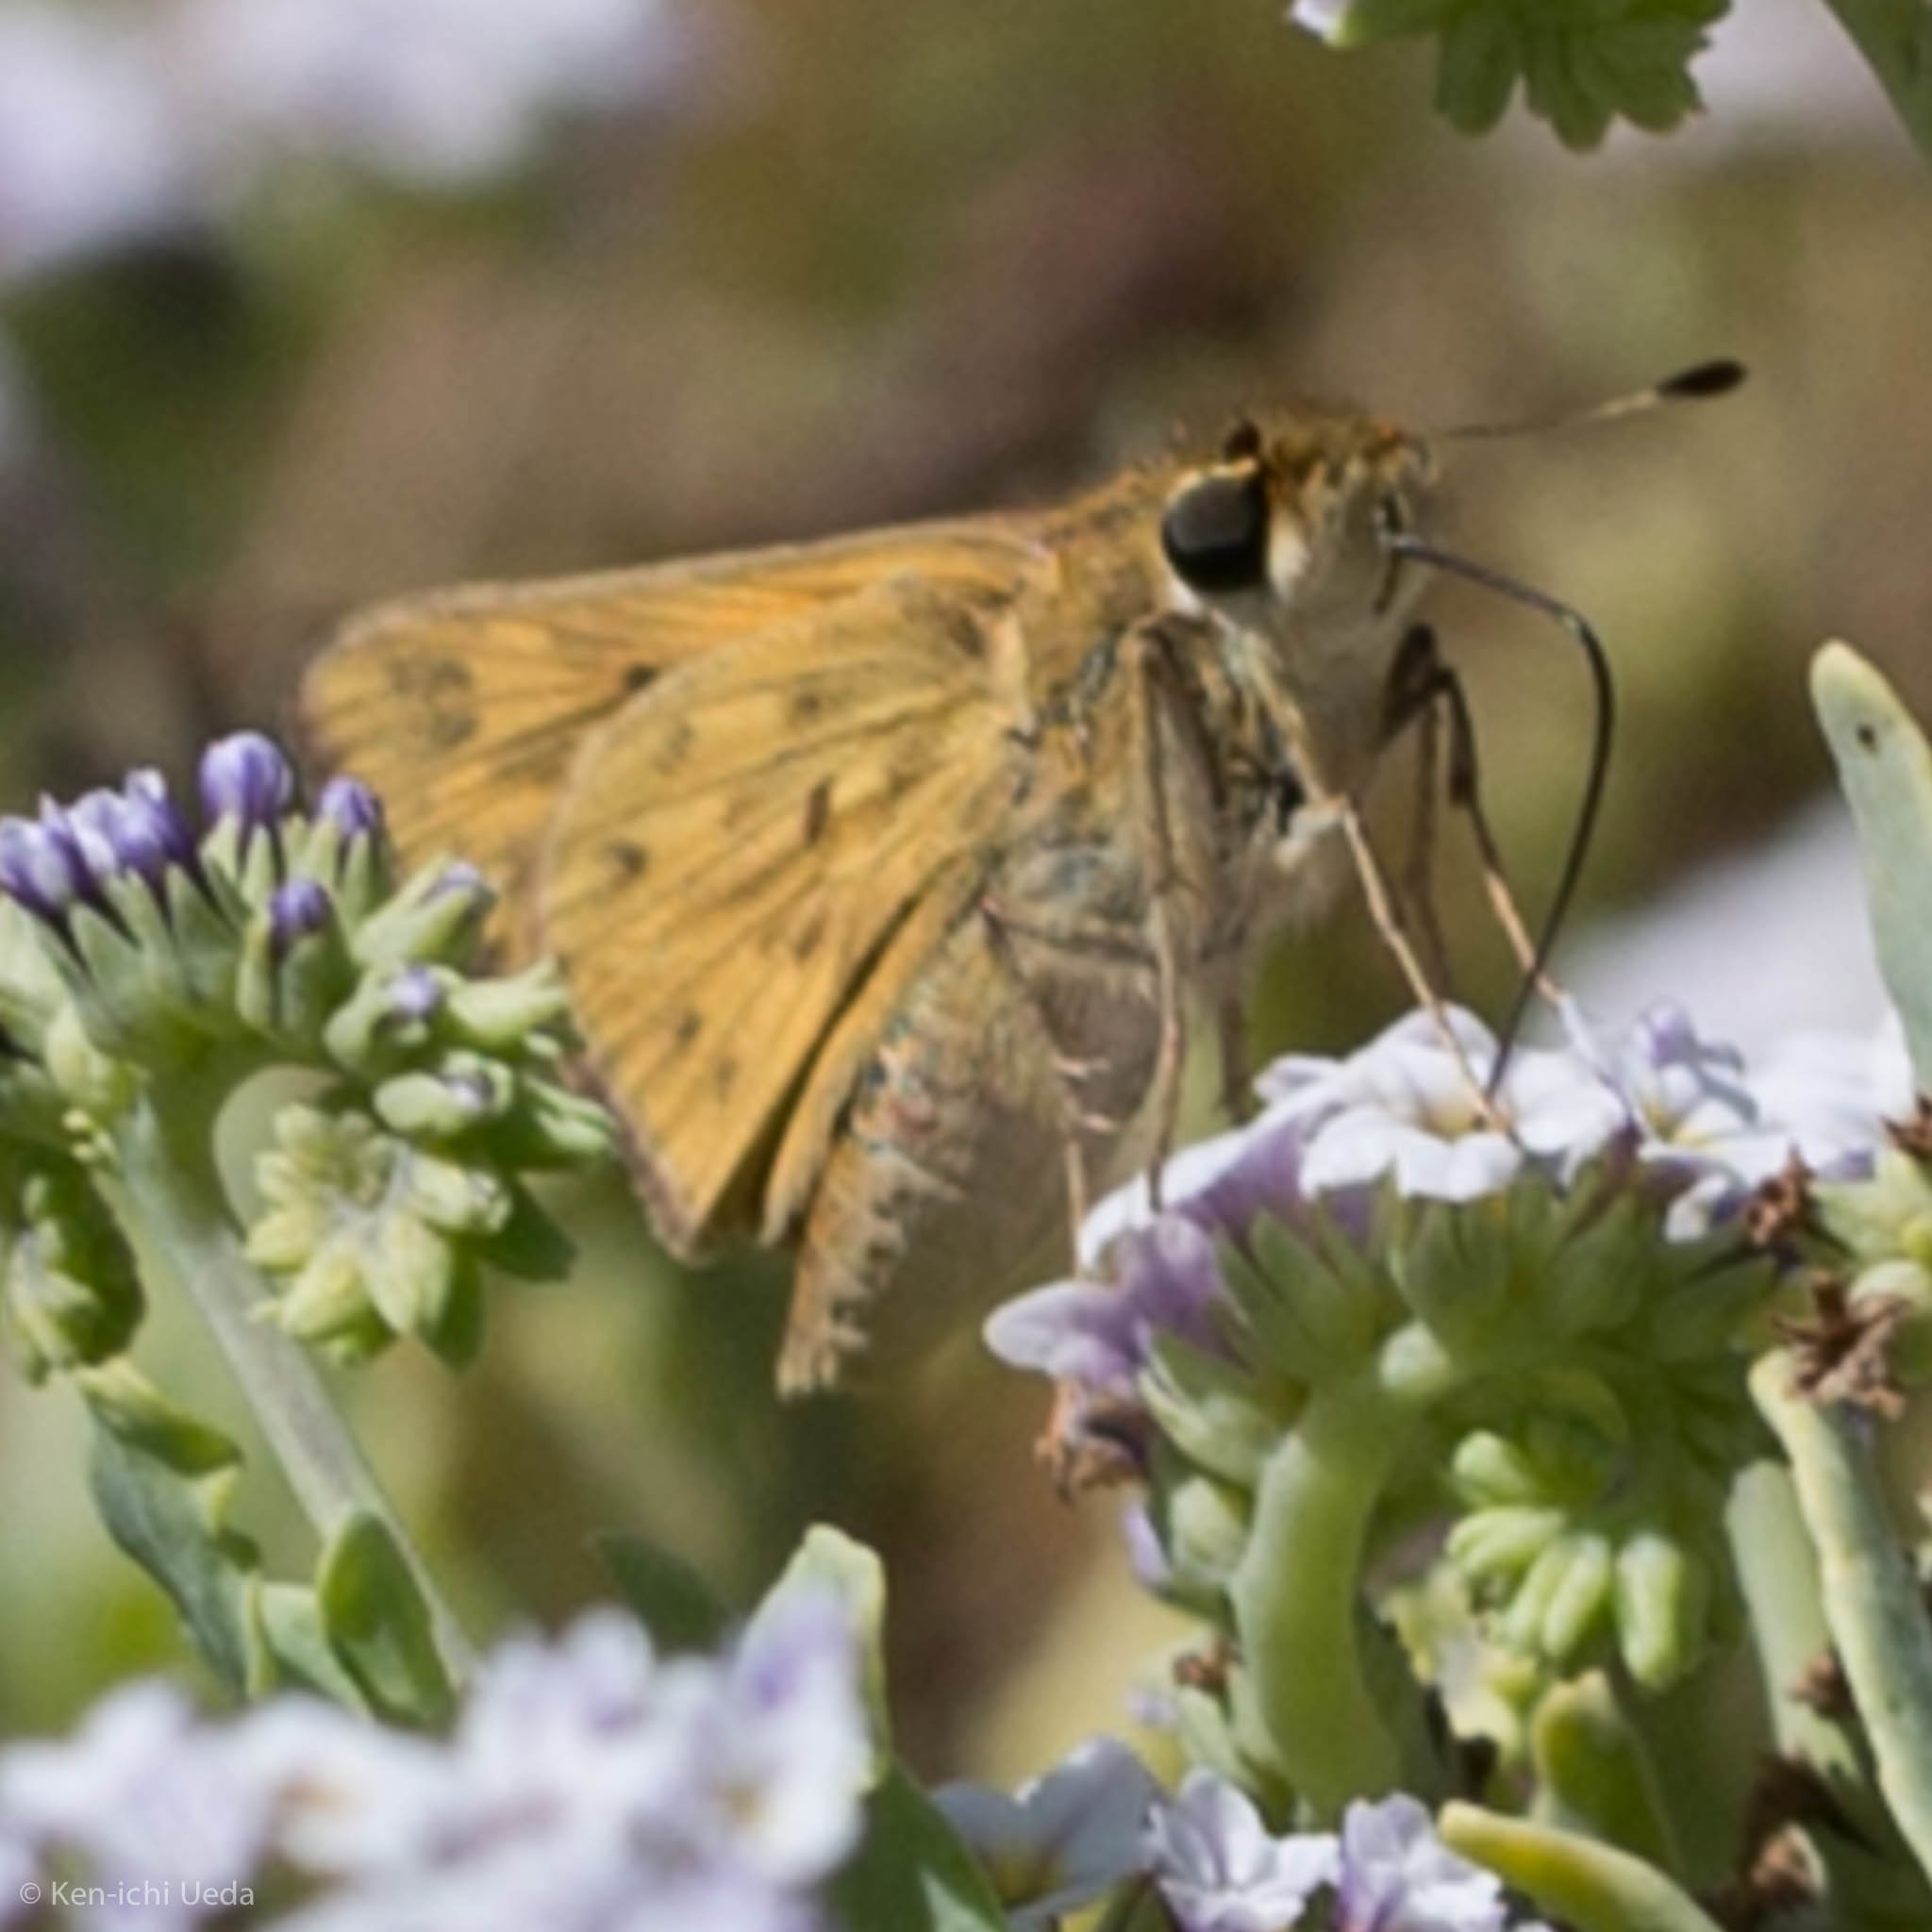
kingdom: Animalia
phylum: Arthropoda
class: Insecta
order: Lepidoptera
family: Hesperiidae
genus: Hylephila
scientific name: Hylephila phyleus
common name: Fiery skipper
